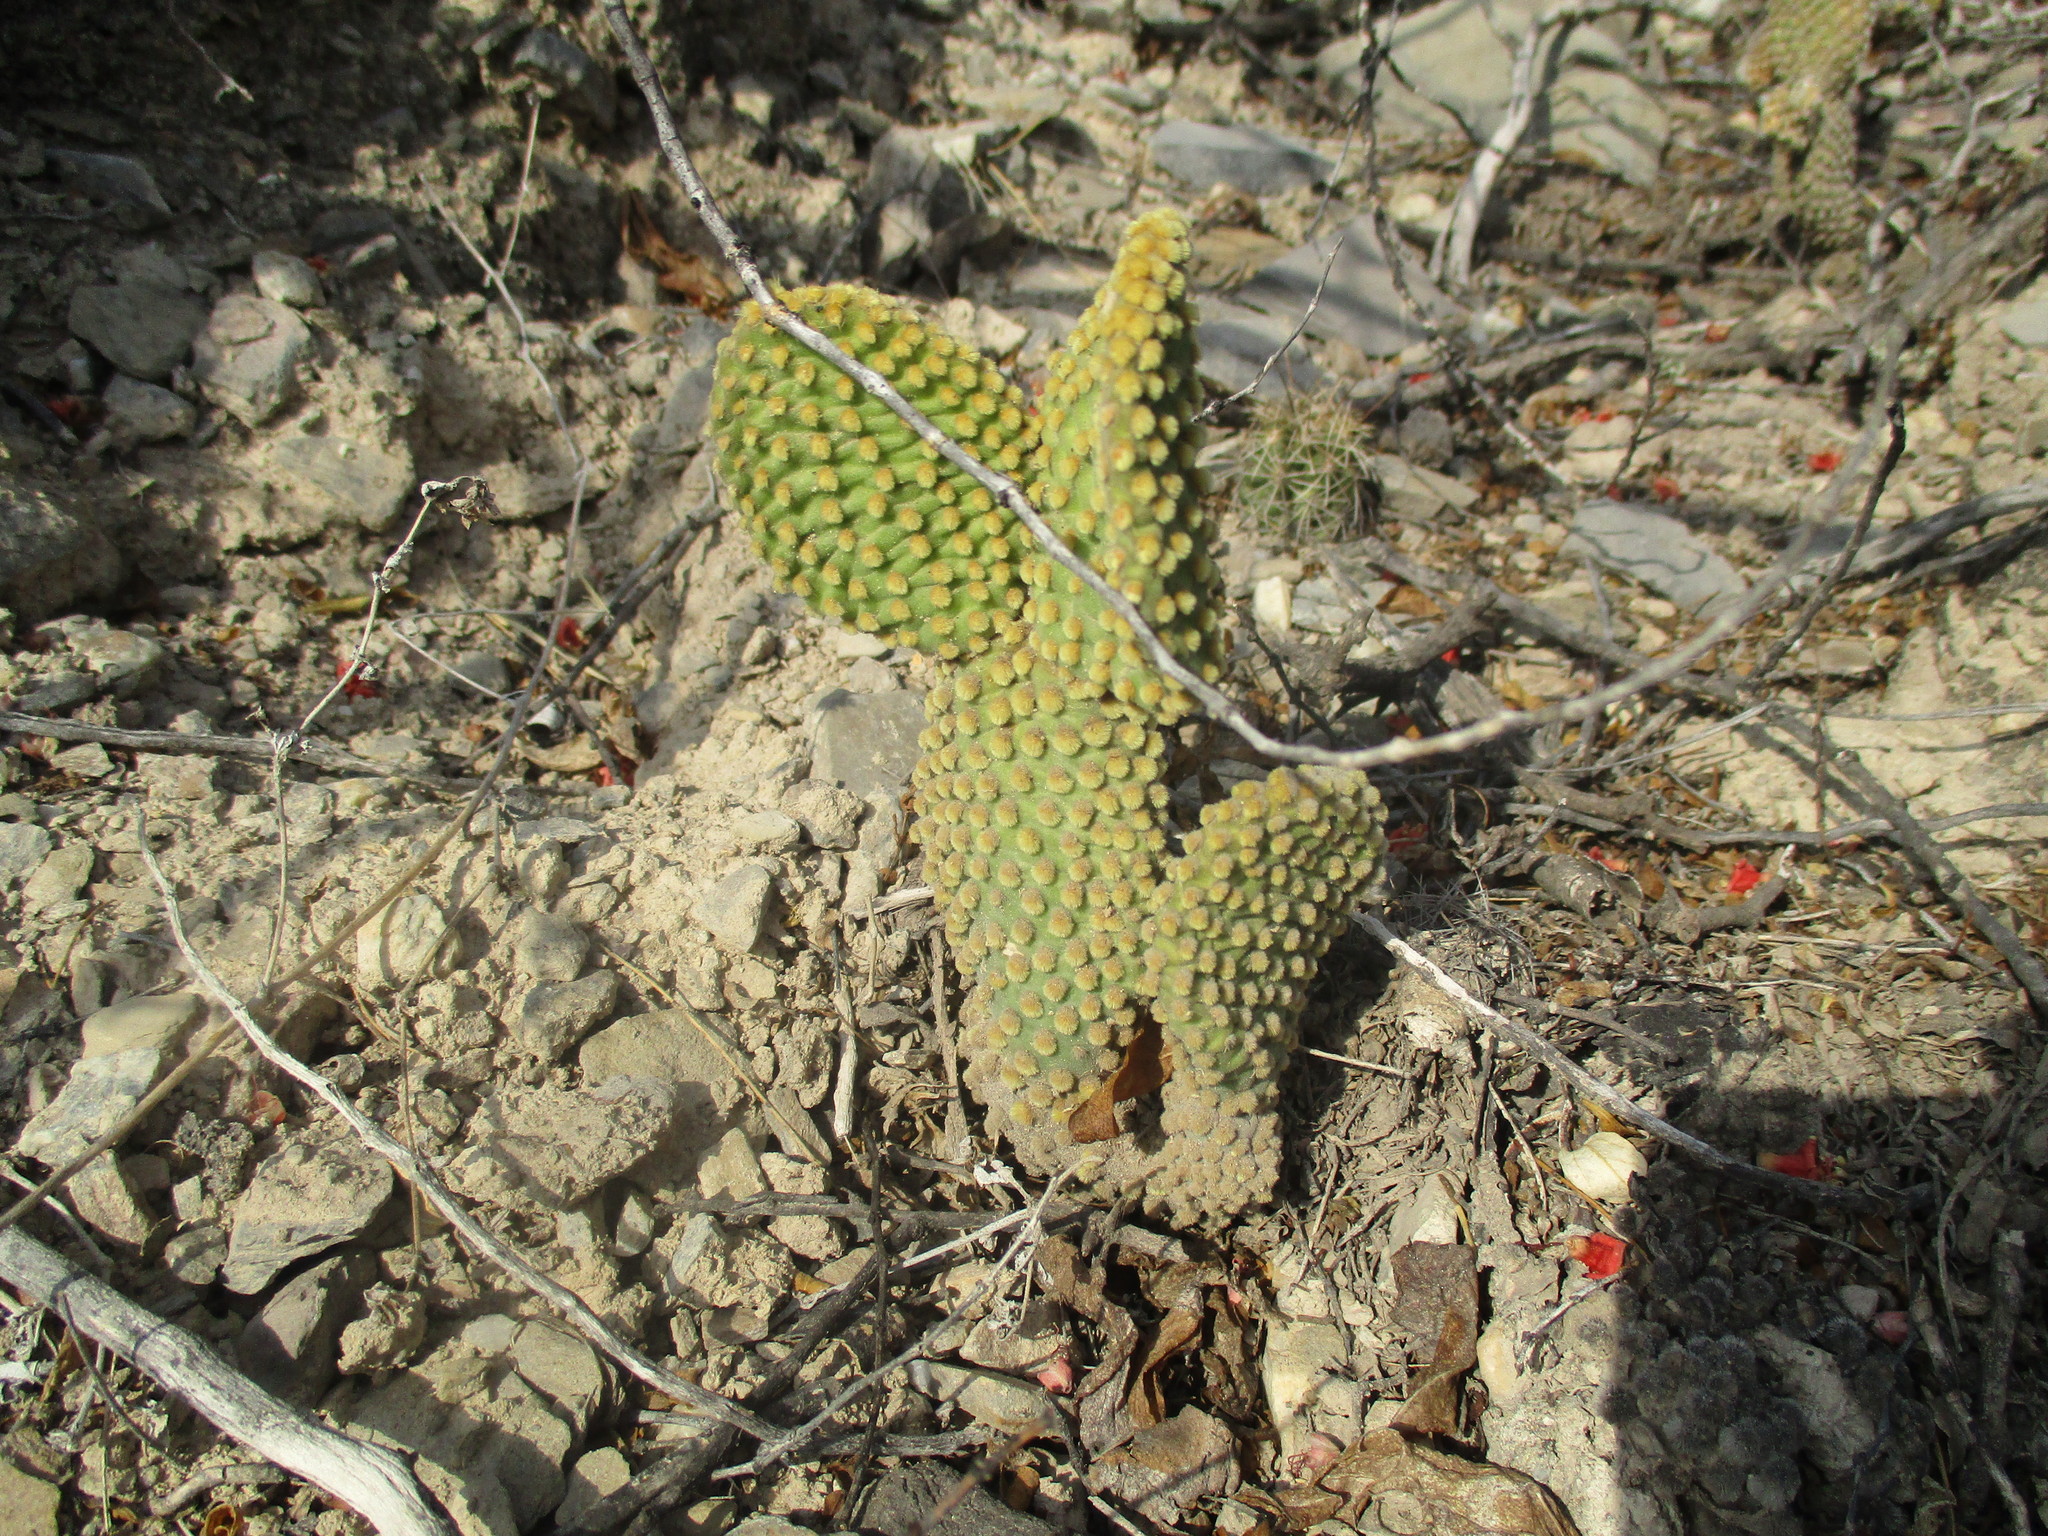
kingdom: Plantae
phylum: Tracheophyta
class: Magnoliopsida
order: Caryophyllales
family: Cactaceae
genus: Opuntia
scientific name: Opuntia microdasys
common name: Angel's-wings
